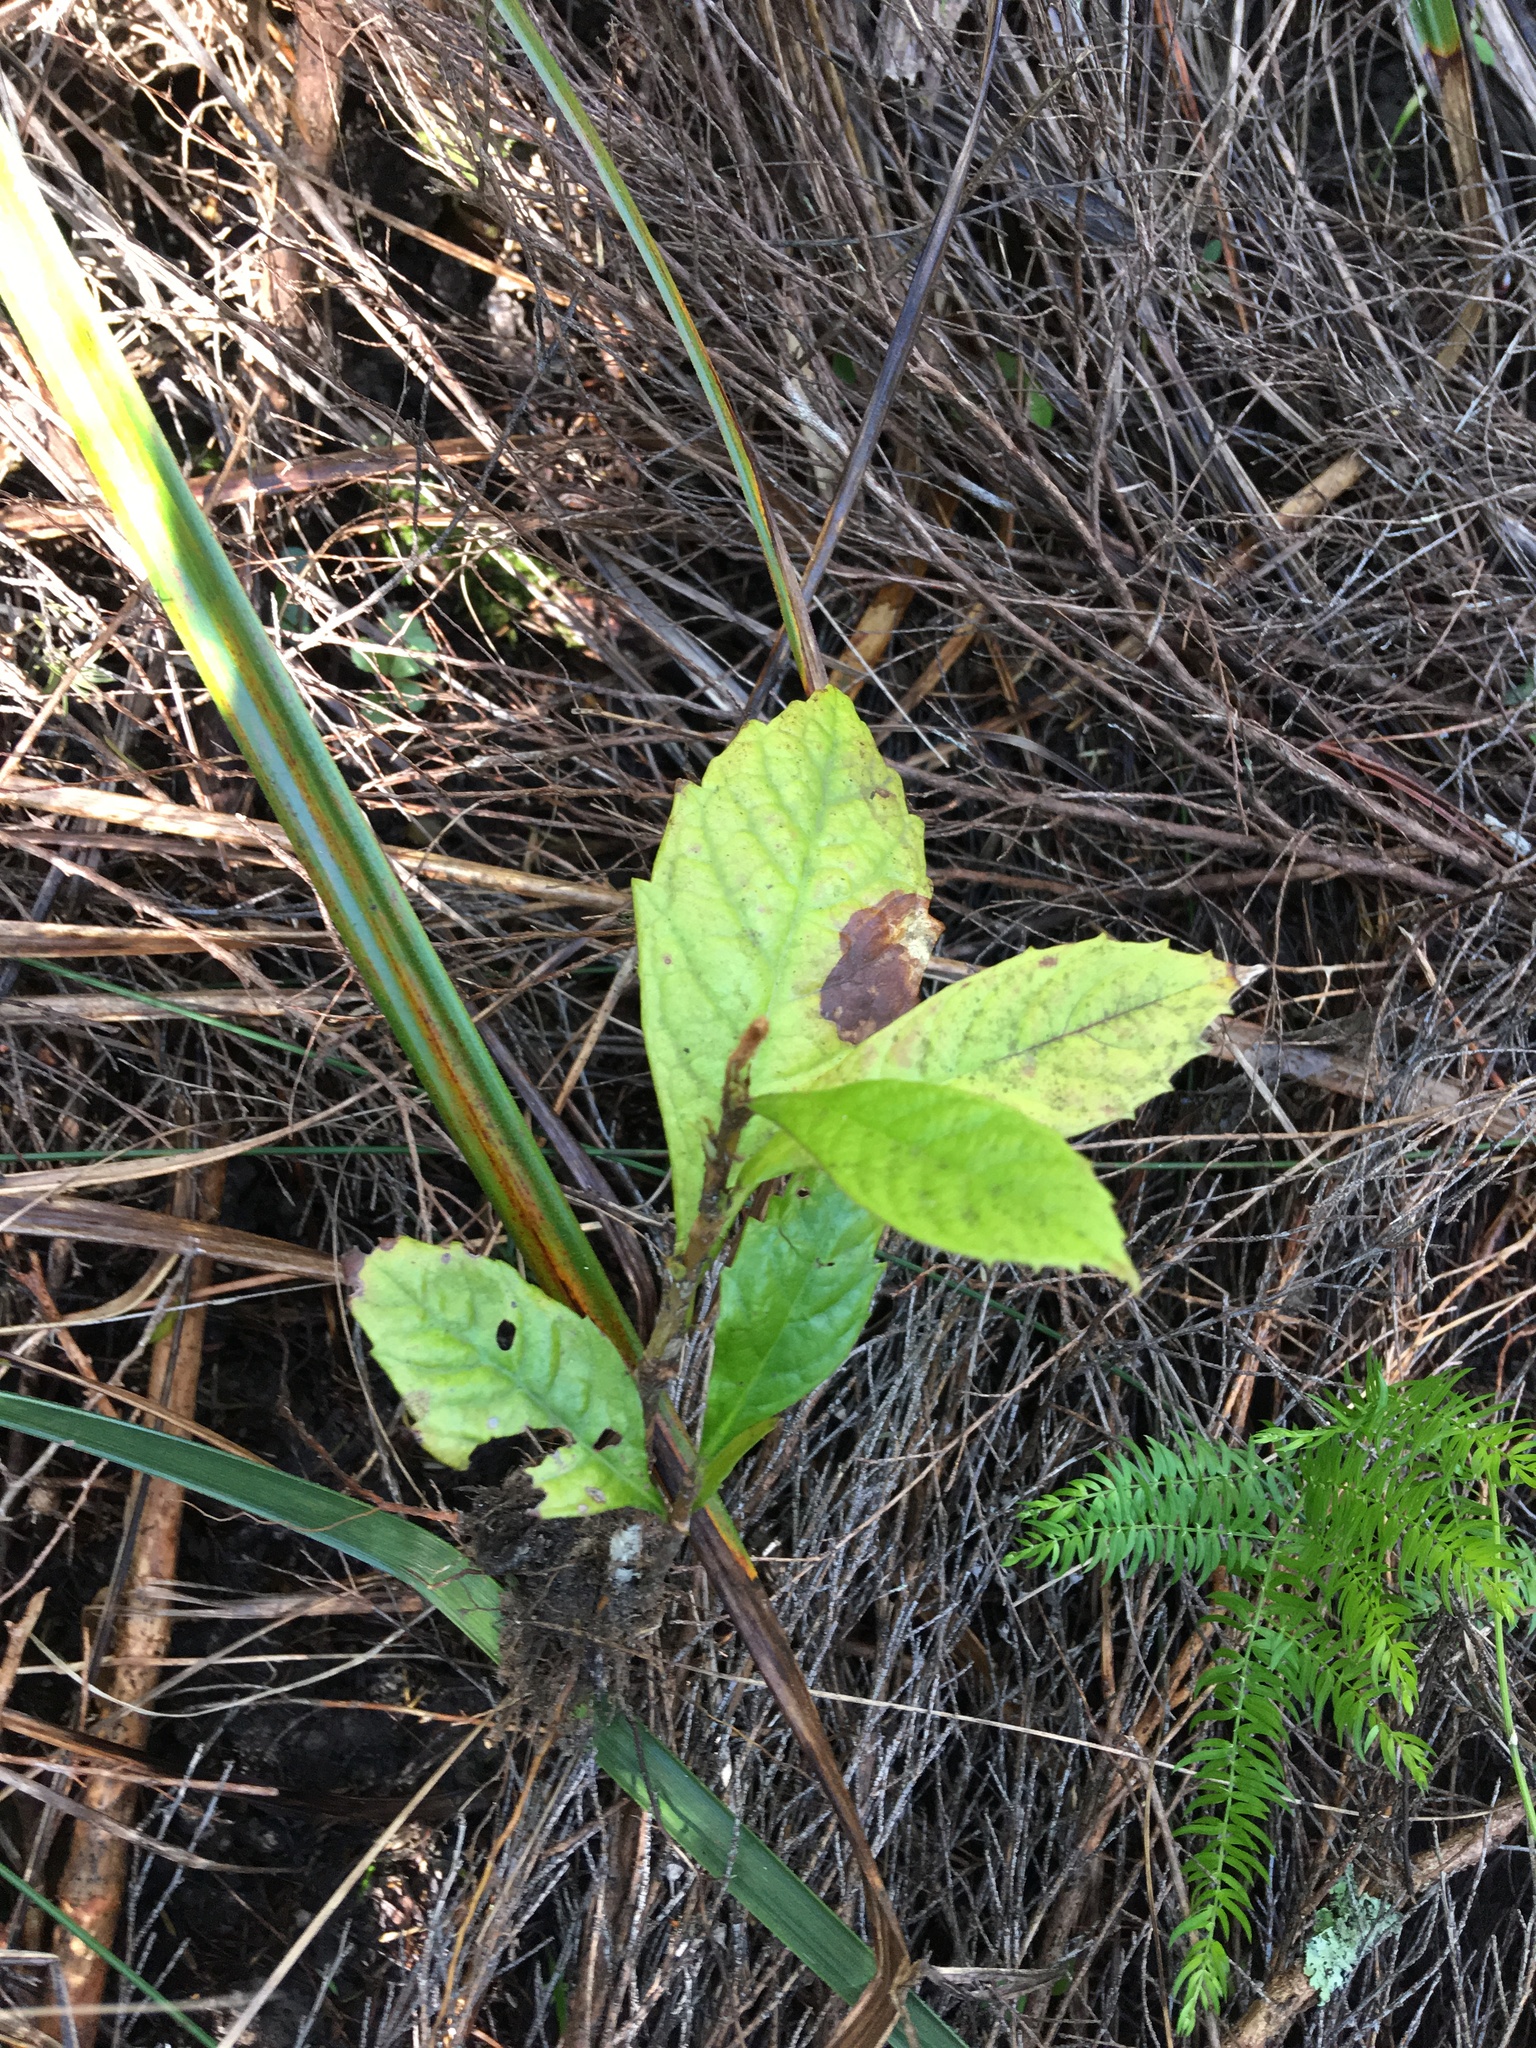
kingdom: Plantae
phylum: Tracheophyta
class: Magnoliopsida
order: Rosales
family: Rosaceae
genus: Rhaphiolepis
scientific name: Rhaphiolepis bibas
